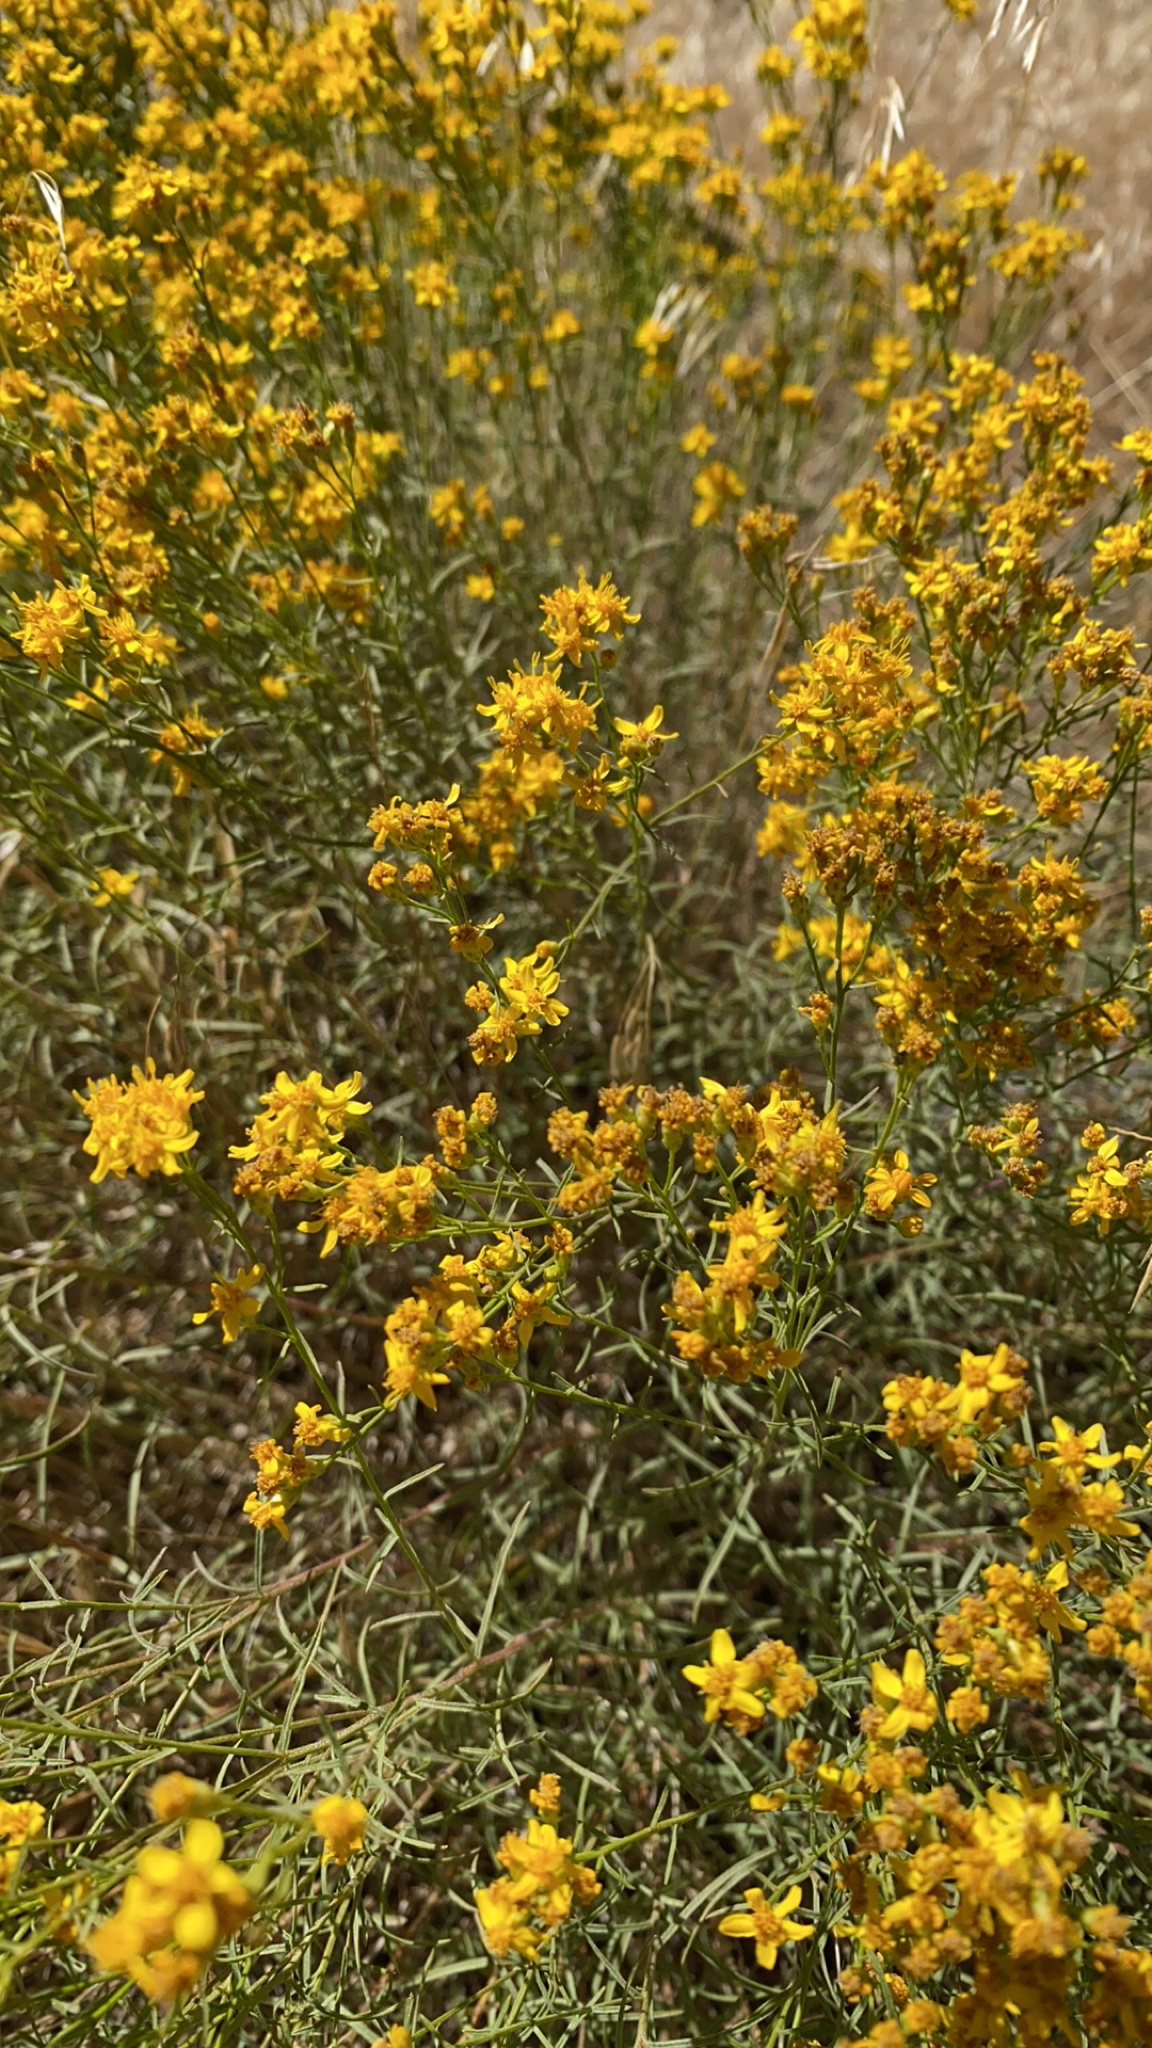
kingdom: Plantae
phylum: Tracheophyta
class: Magnoliopsida
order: Asterales
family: Asteraceae
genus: Gutierrezia
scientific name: Gutierrezia sarothrae
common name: Broom snakeweed
